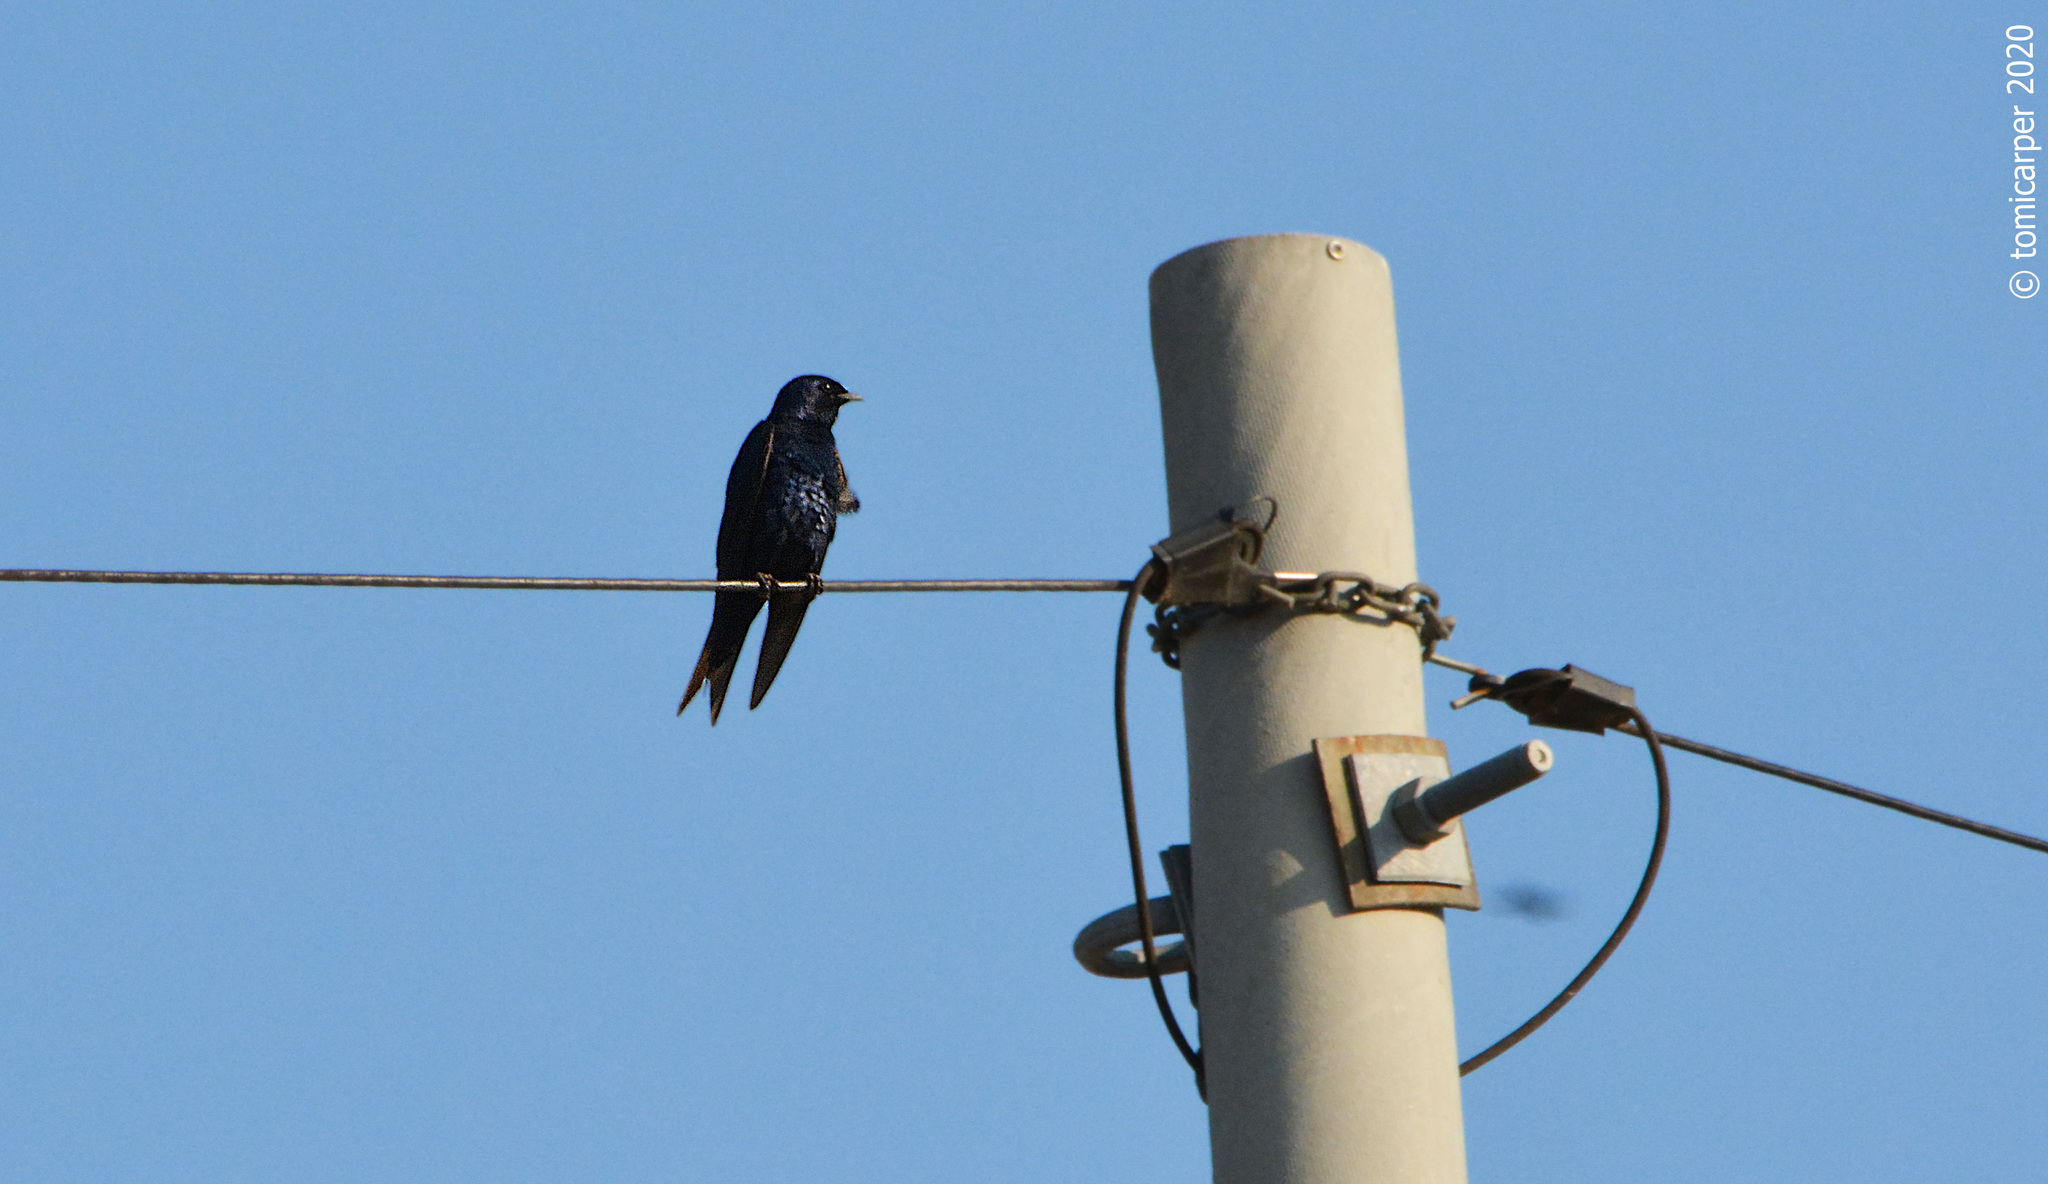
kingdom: Animalia
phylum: Chordata
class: Aves
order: Passeriformes
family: Hirundinidae
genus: Progne
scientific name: Progne elegans
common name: Southern martin
